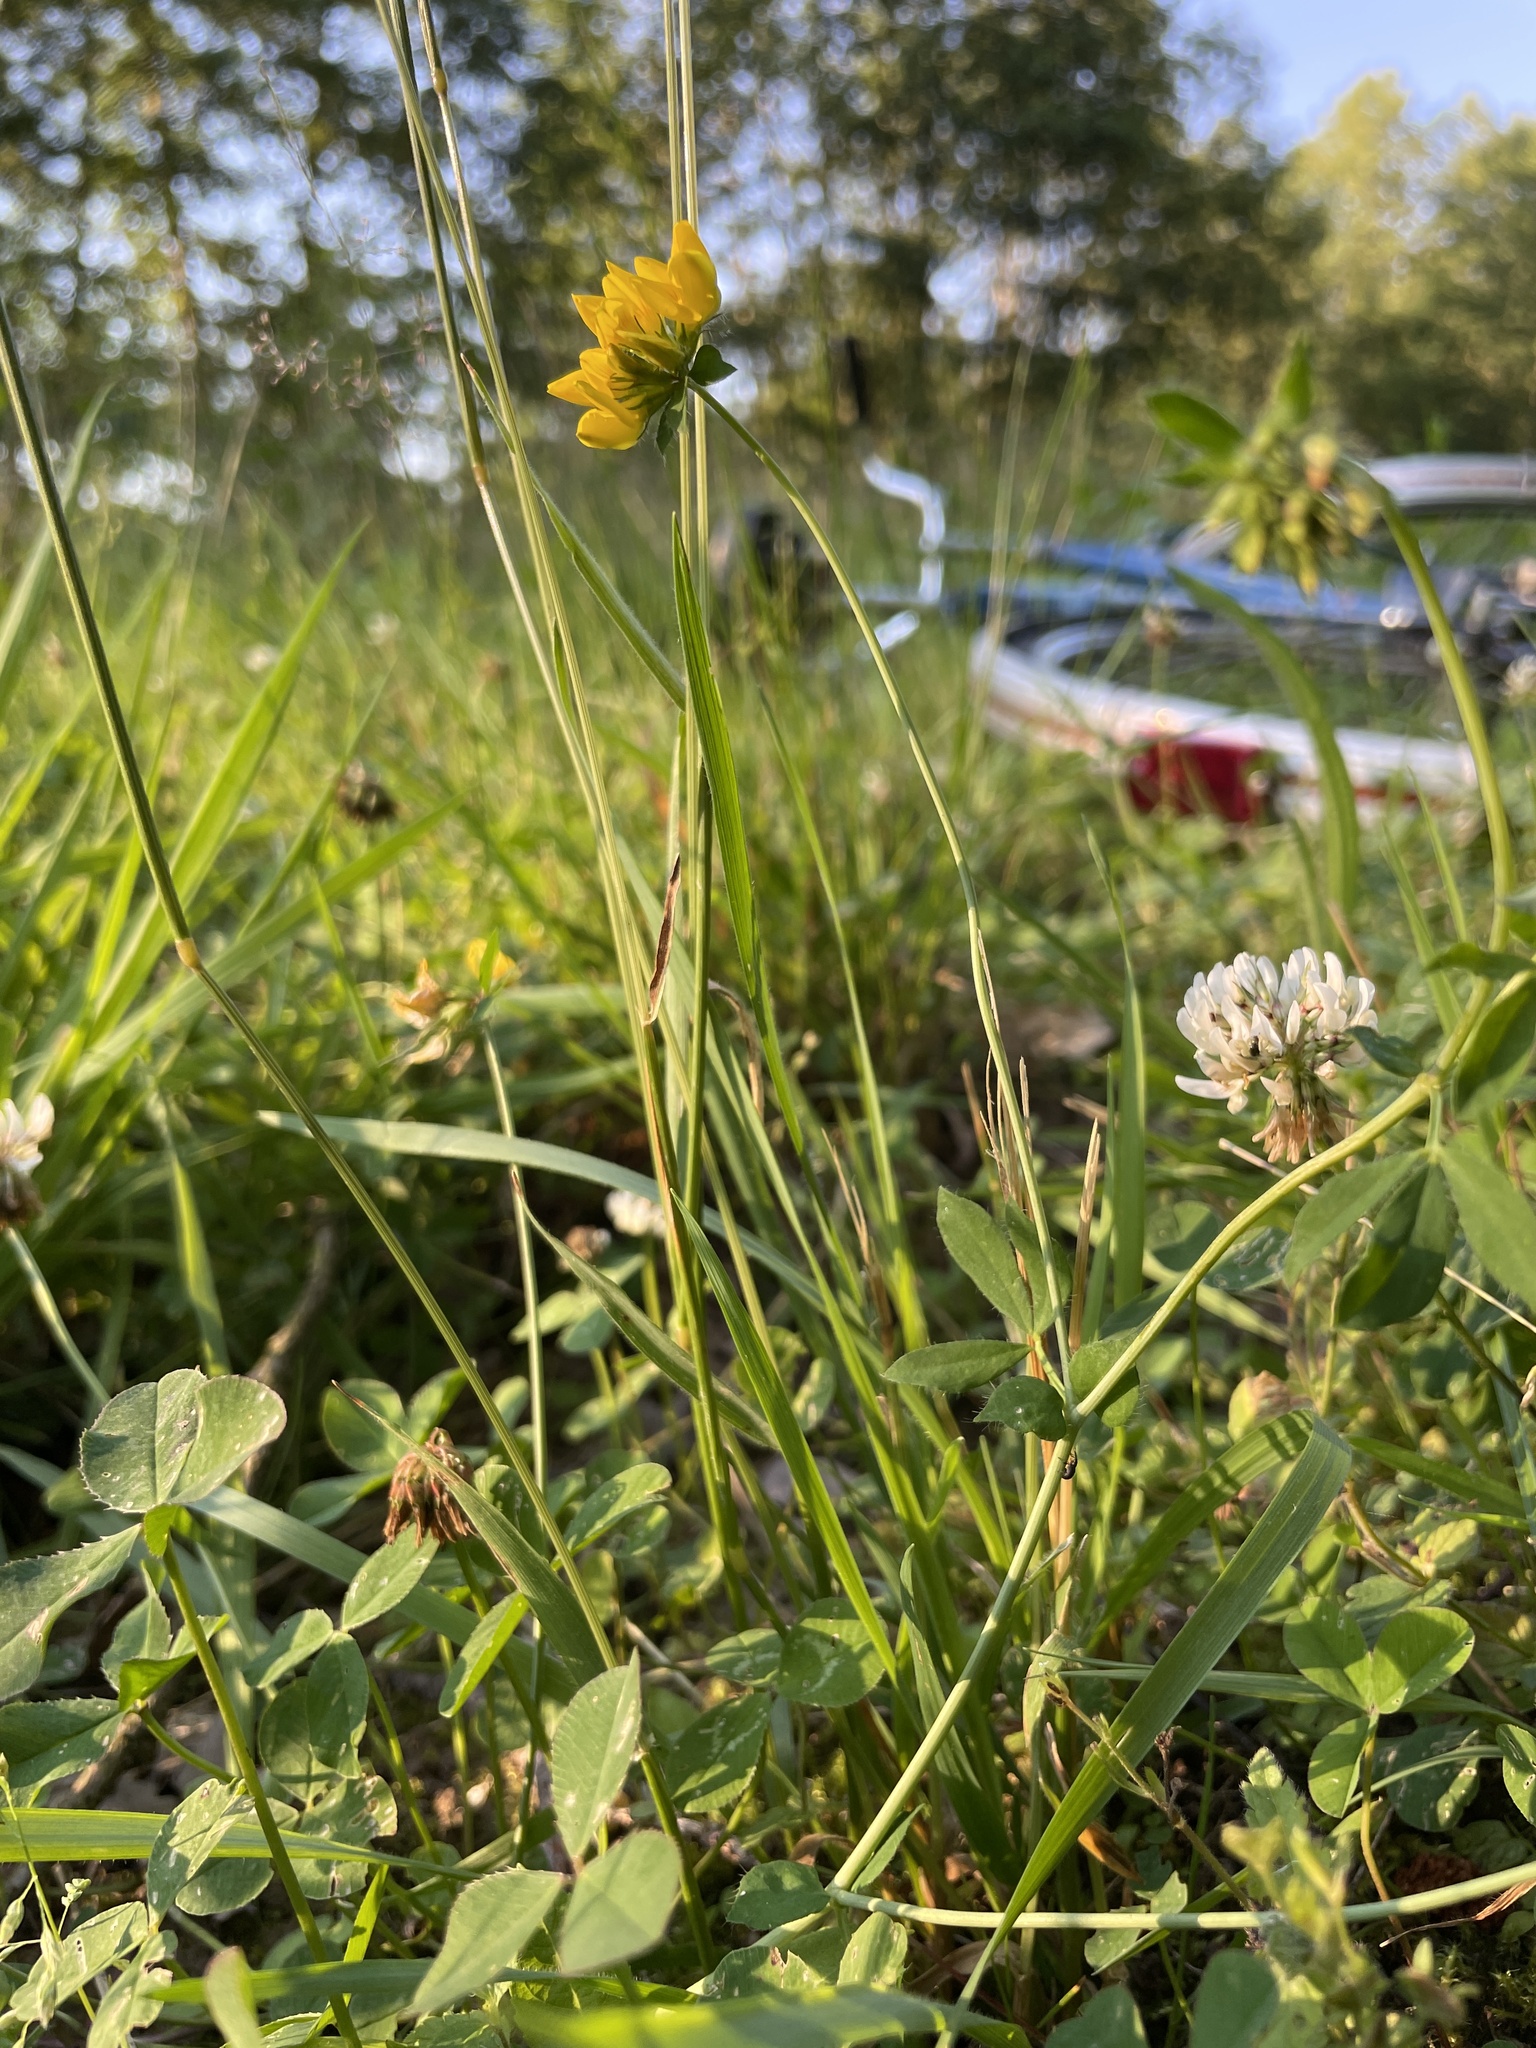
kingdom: Plantae
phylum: Tracheophyta
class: Magnoliopsida
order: Fabales
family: Fabaceae
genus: Lotus
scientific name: Lotus corniculatus
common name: Common bird's-foot-trefoil
